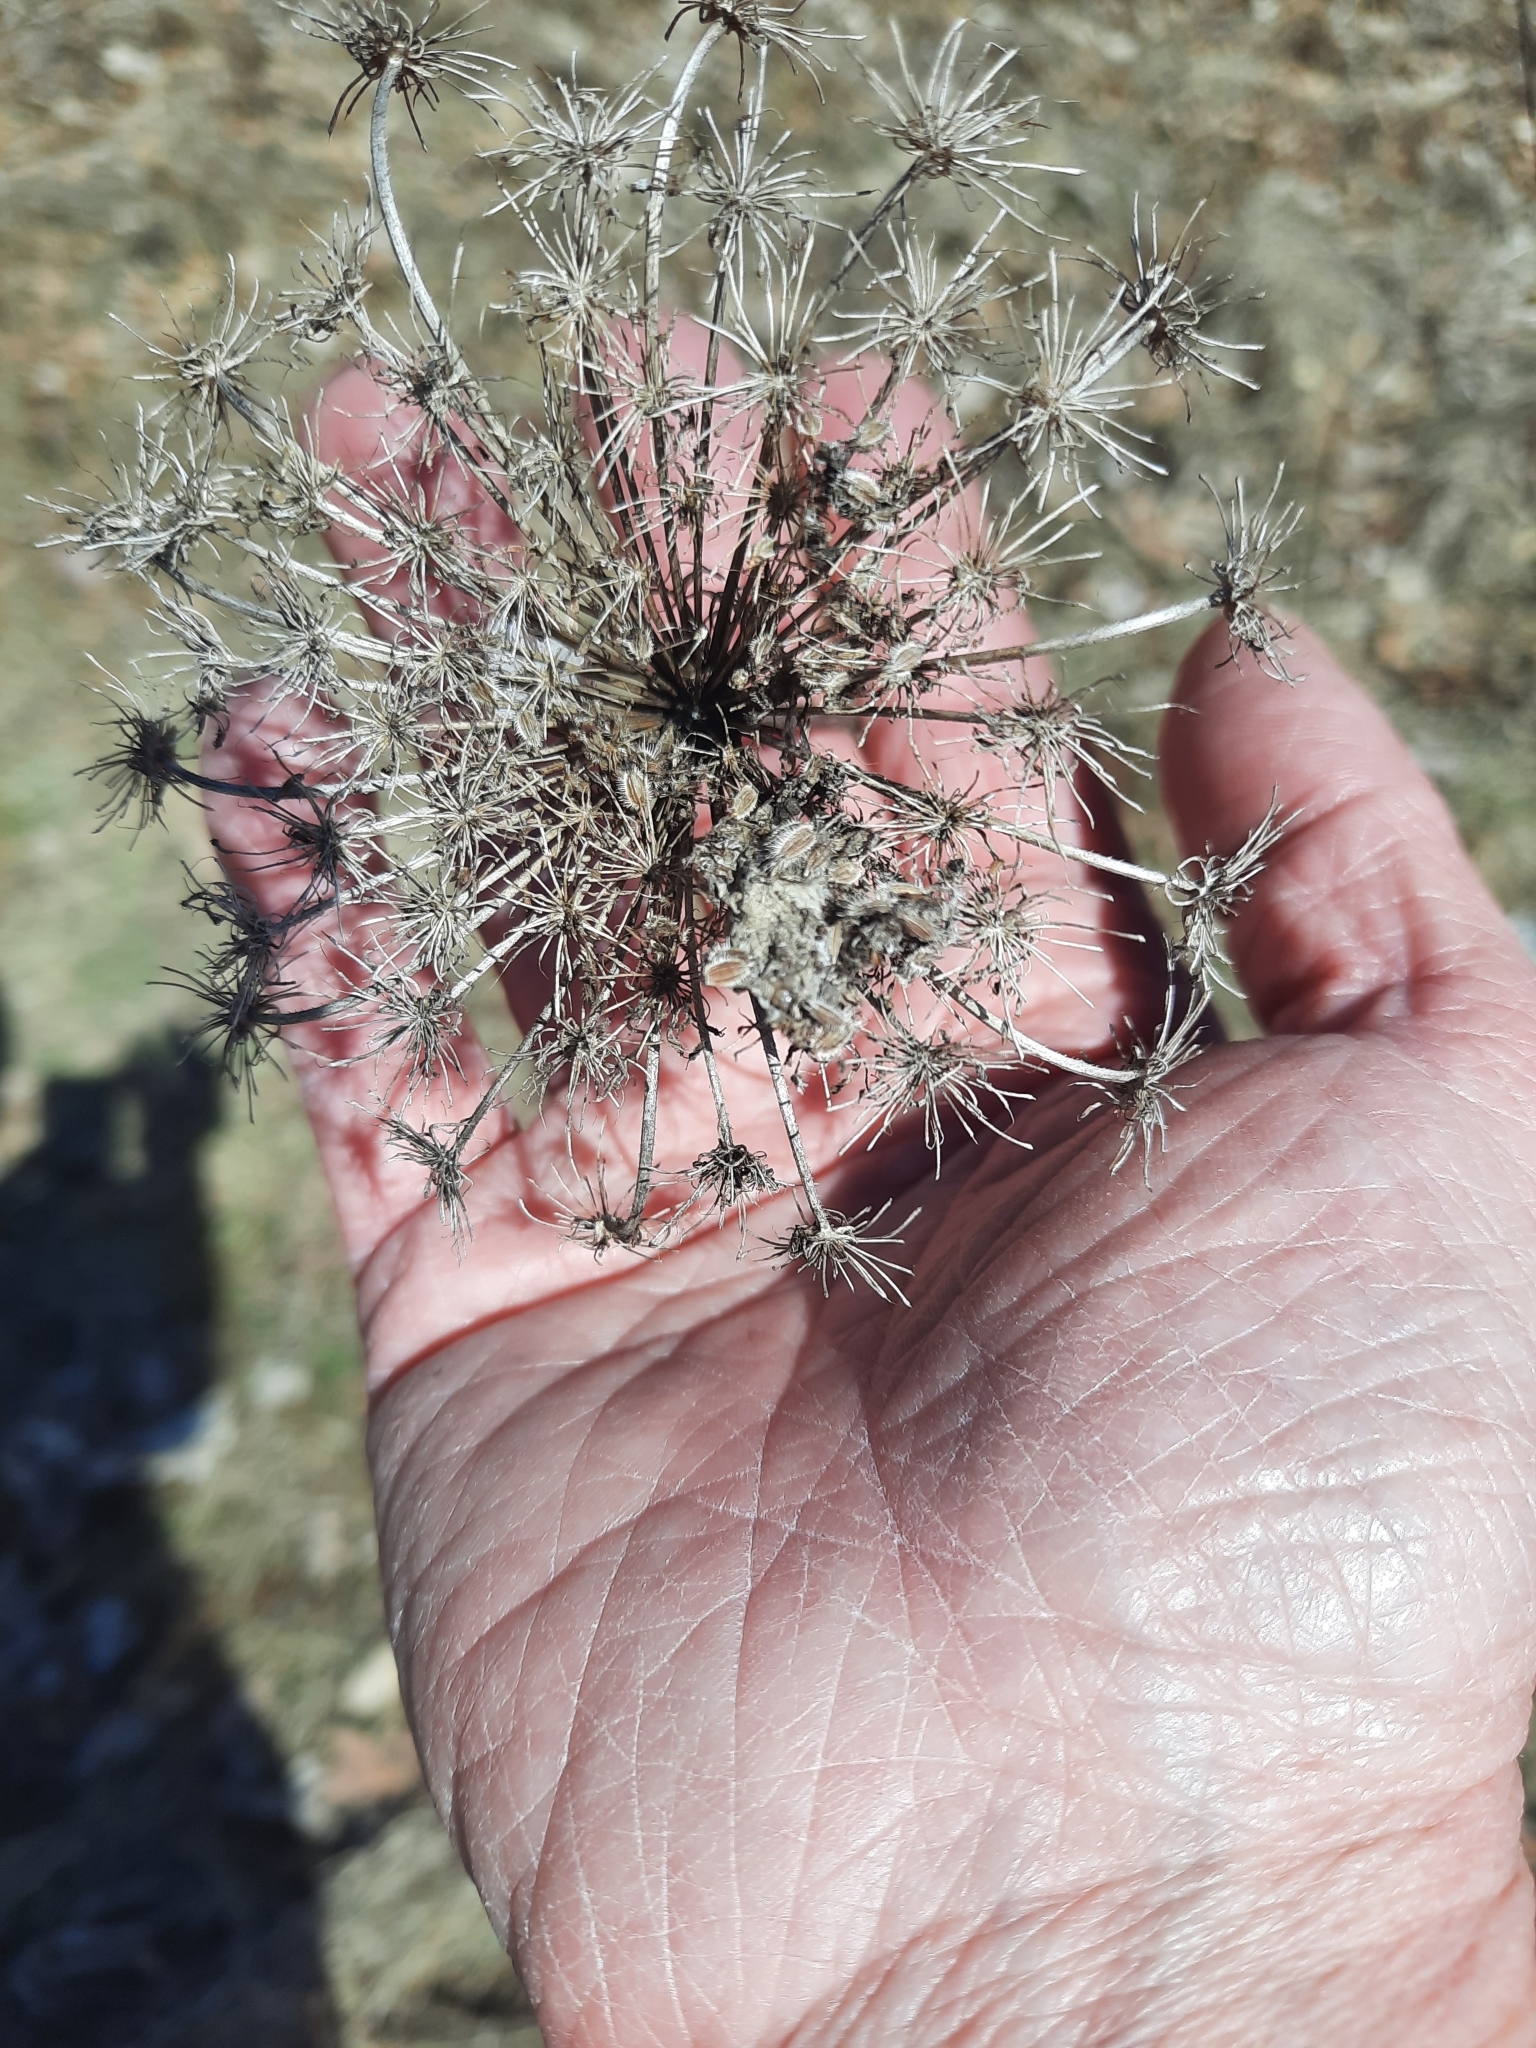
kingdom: Plantae
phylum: Tracheophyta
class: Magnoliopsida
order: Apiales
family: Apiaceae
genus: Daucus
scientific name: Daucus carota
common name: Wild carrot
